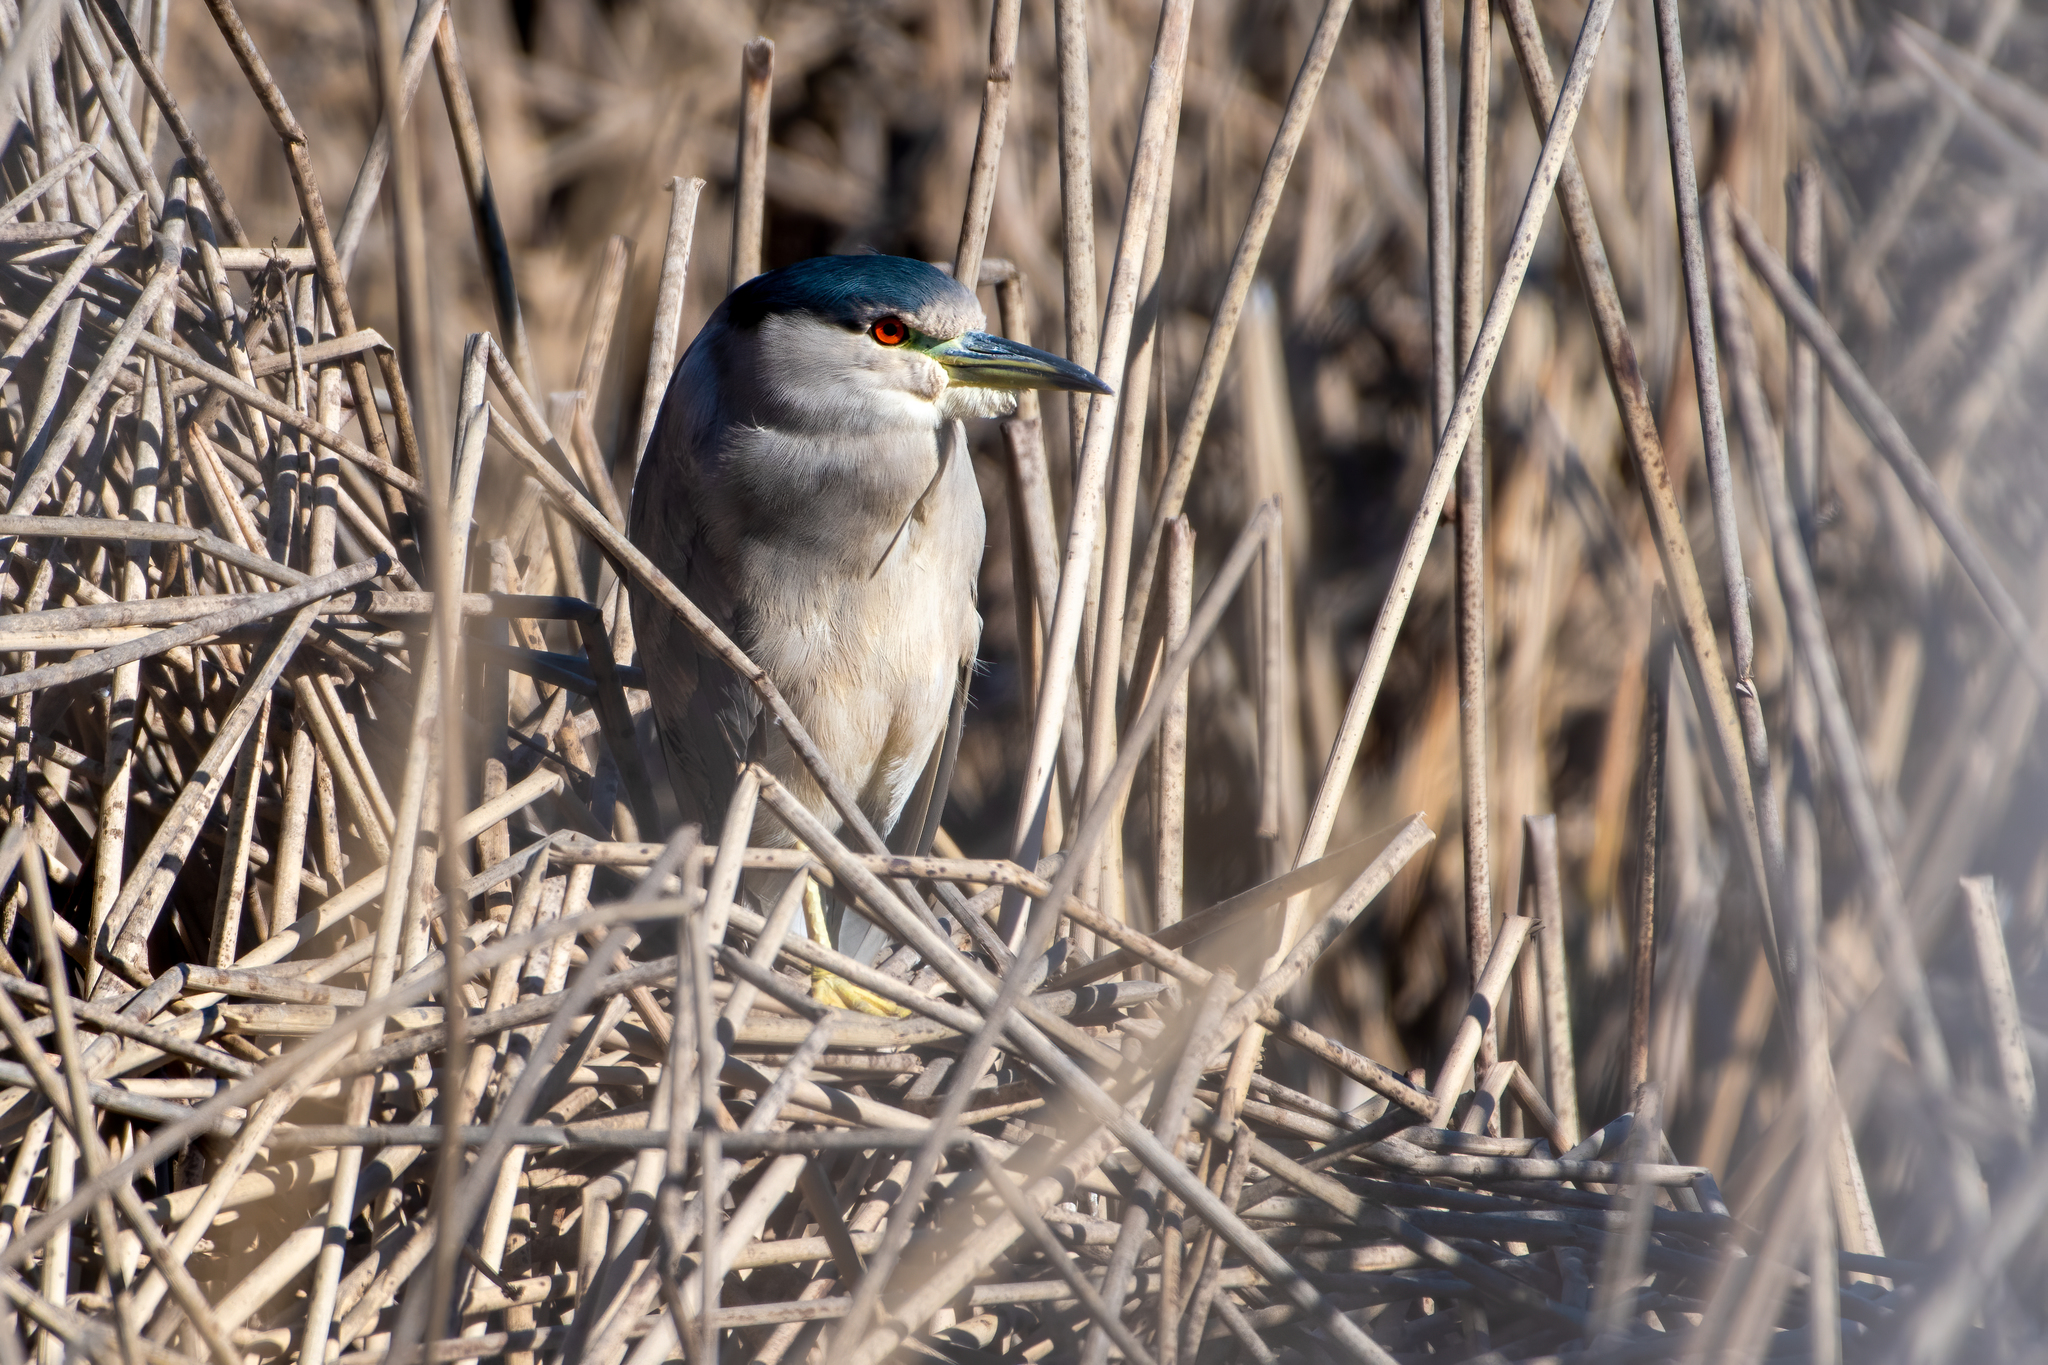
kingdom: Animalia
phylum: Chordata
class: Aves
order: Pelecaniformes
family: Ardeidae
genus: Nycticorax
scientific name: Nycticorax nycticorax
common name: Black-crowned night heron
